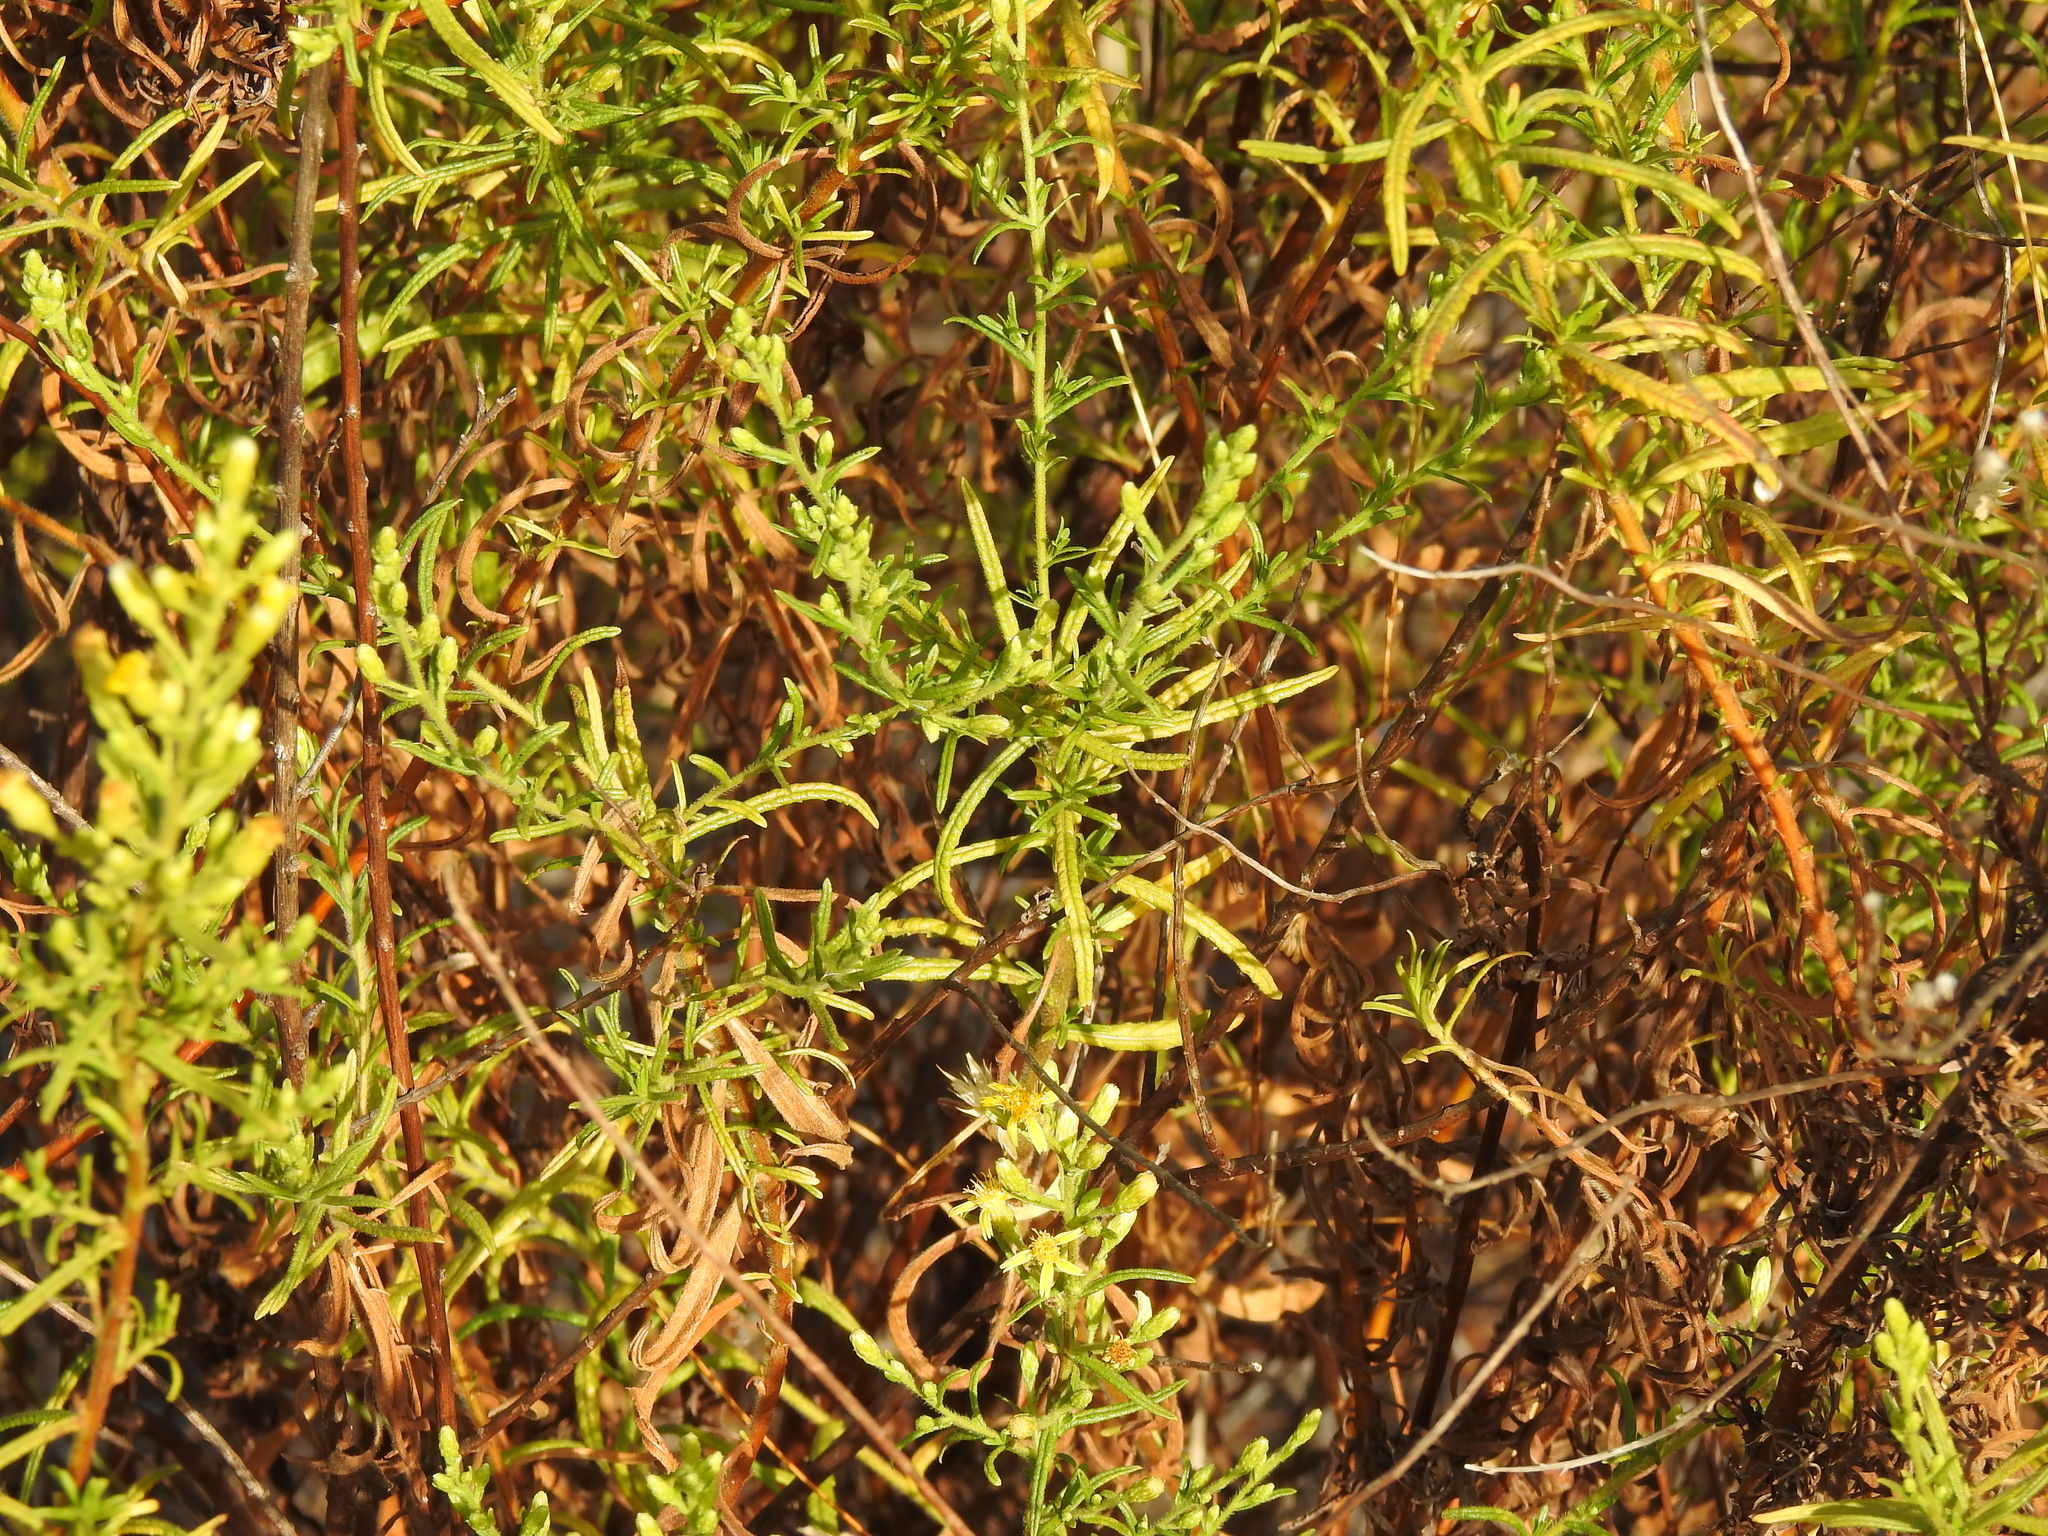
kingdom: Plantae
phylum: Tracheophyta
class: Magnoliopsida
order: Asterales
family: Asteraceae
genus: Dittrichia
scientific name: Dittrichia viscosa
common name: Woody fleabane
